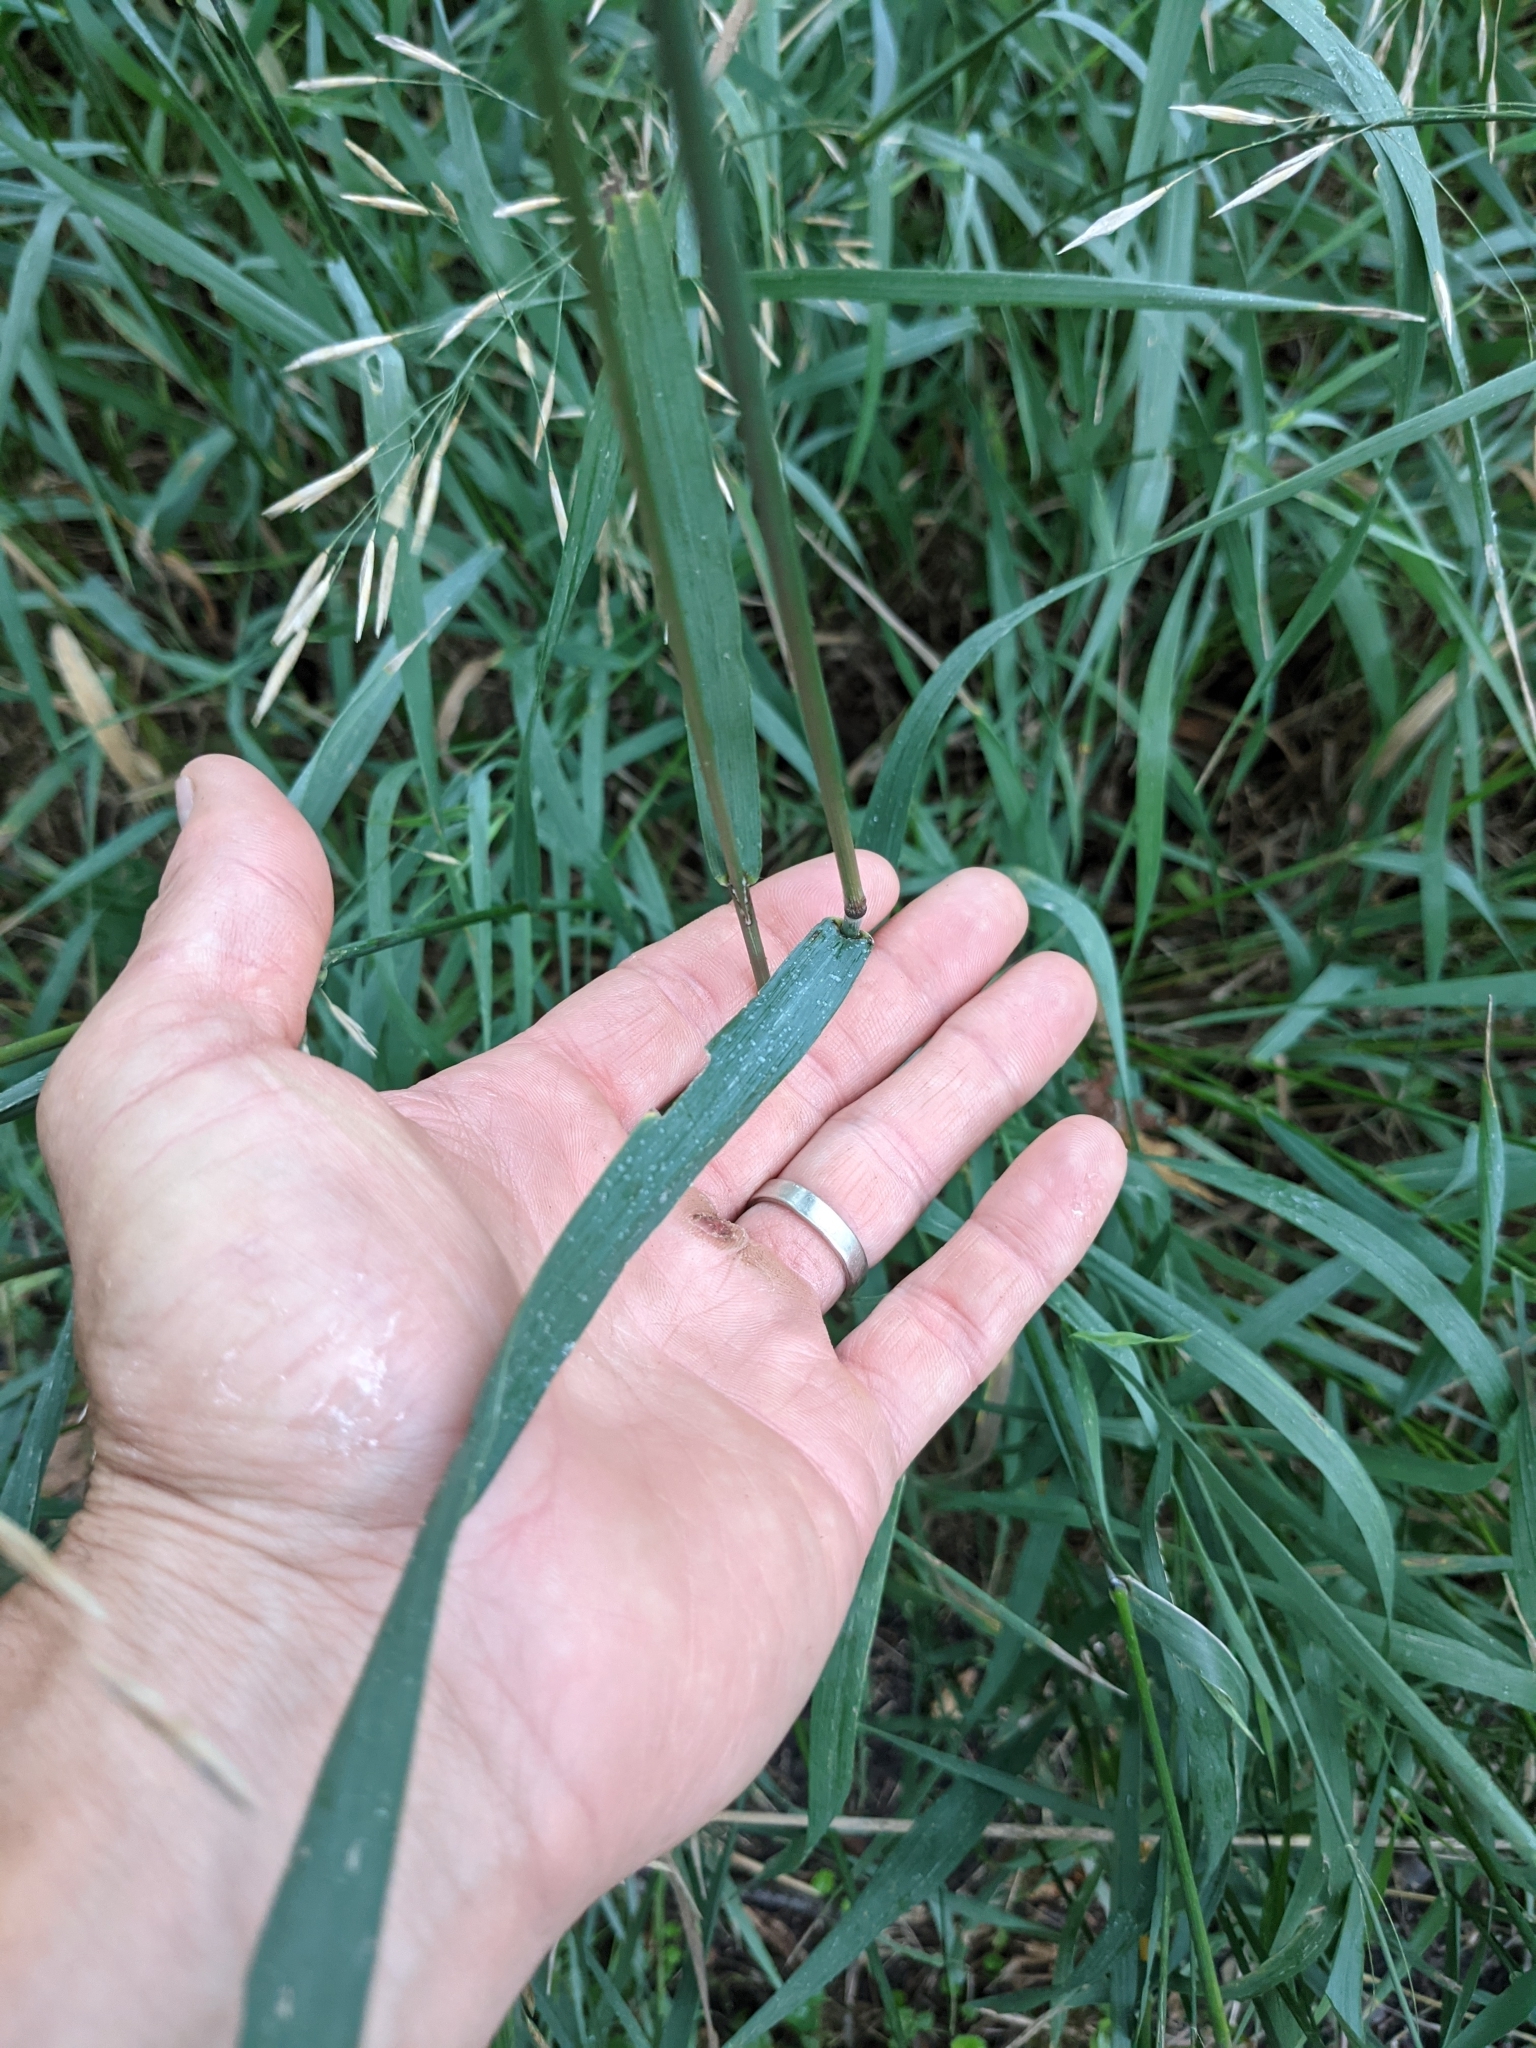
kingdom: Plantae
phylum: Tracheophyta
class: Liliopsida
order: Poales
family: Poaceae
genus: Bromus
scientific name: Bromus inermis
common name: Smooth brome
